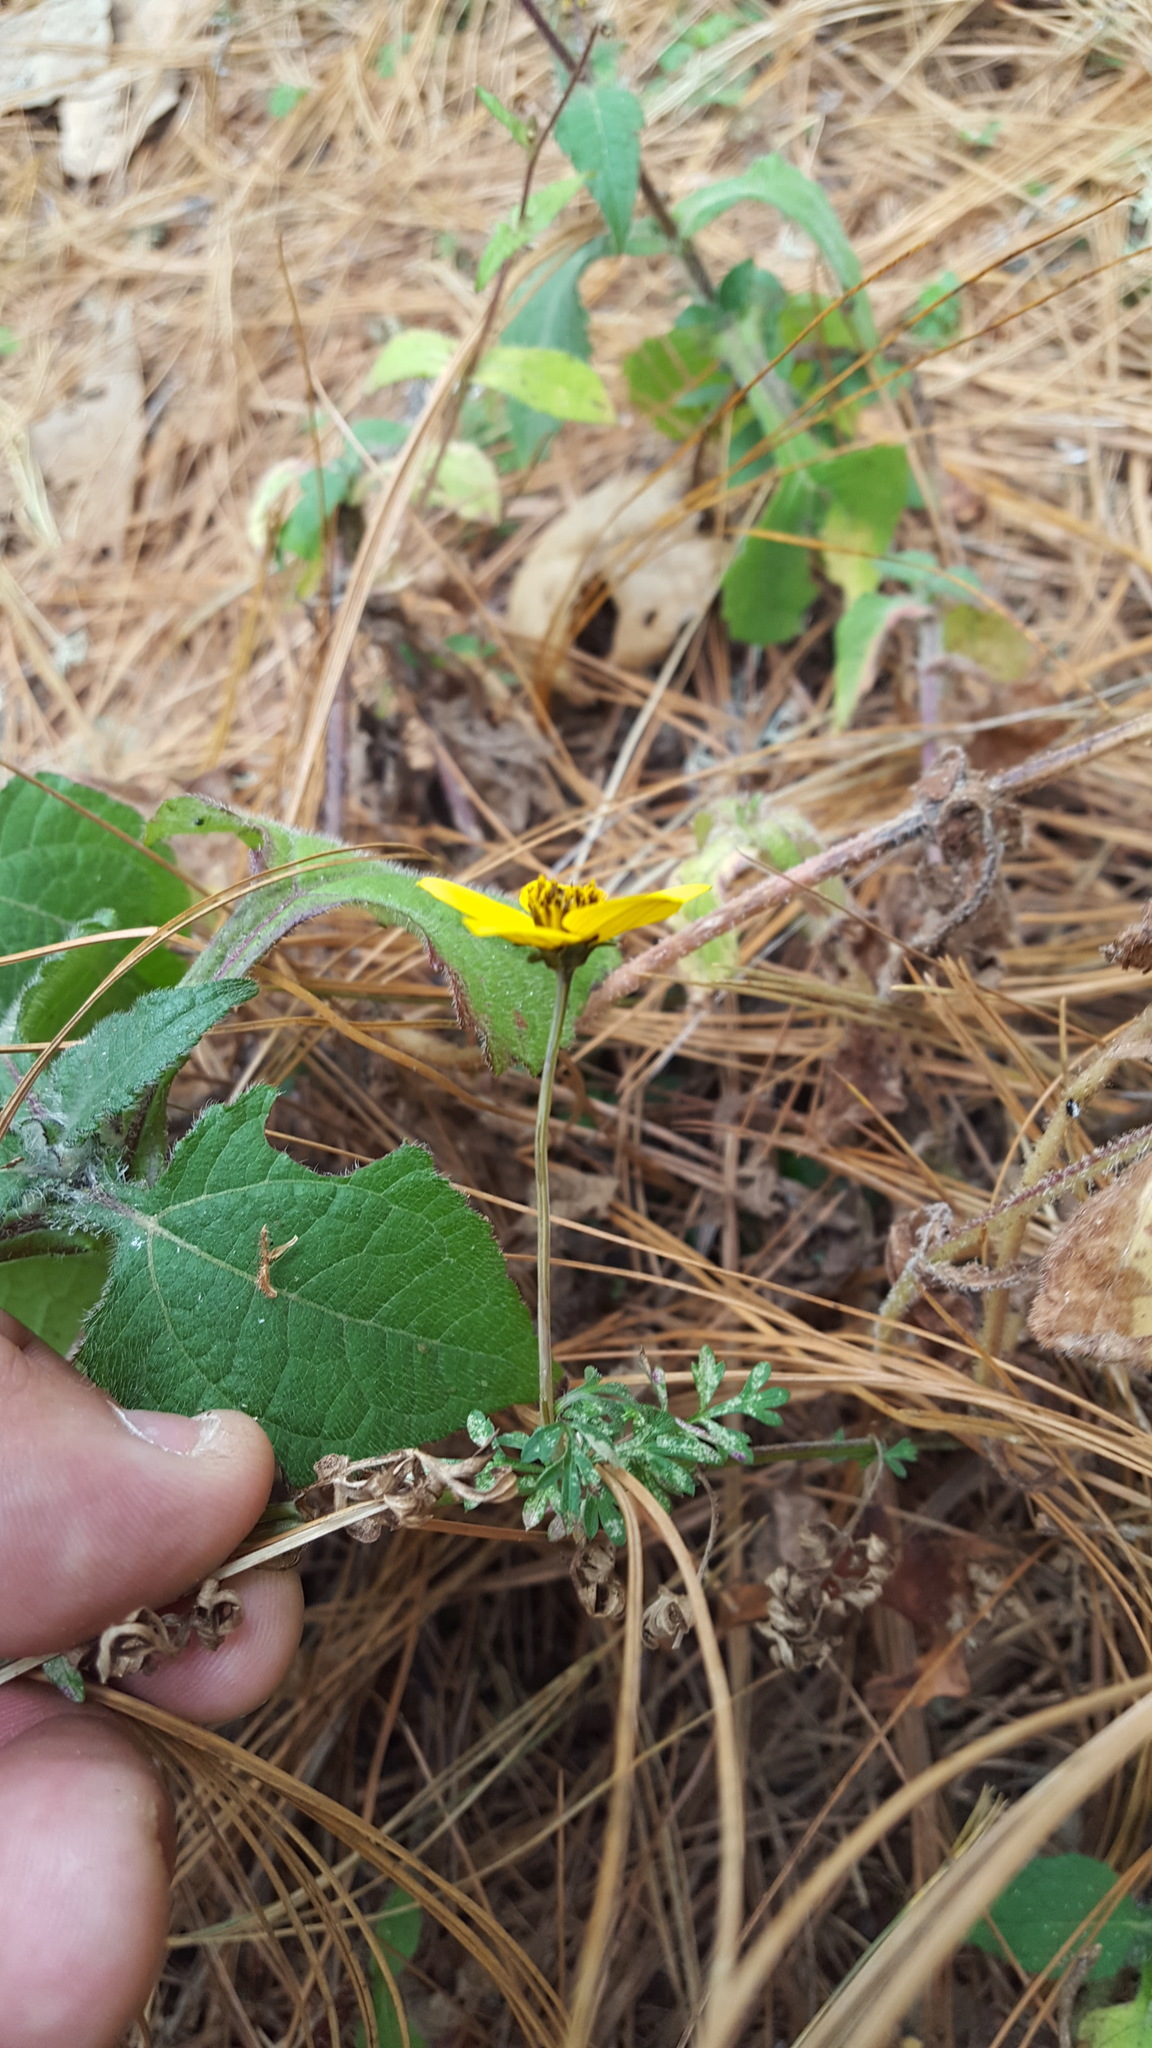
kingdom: Plantae
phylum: Tracheophyta
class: Magnoliopsida
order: Asterales
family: Asteraceae
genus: Bidens
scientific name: Bidens triplinervia
